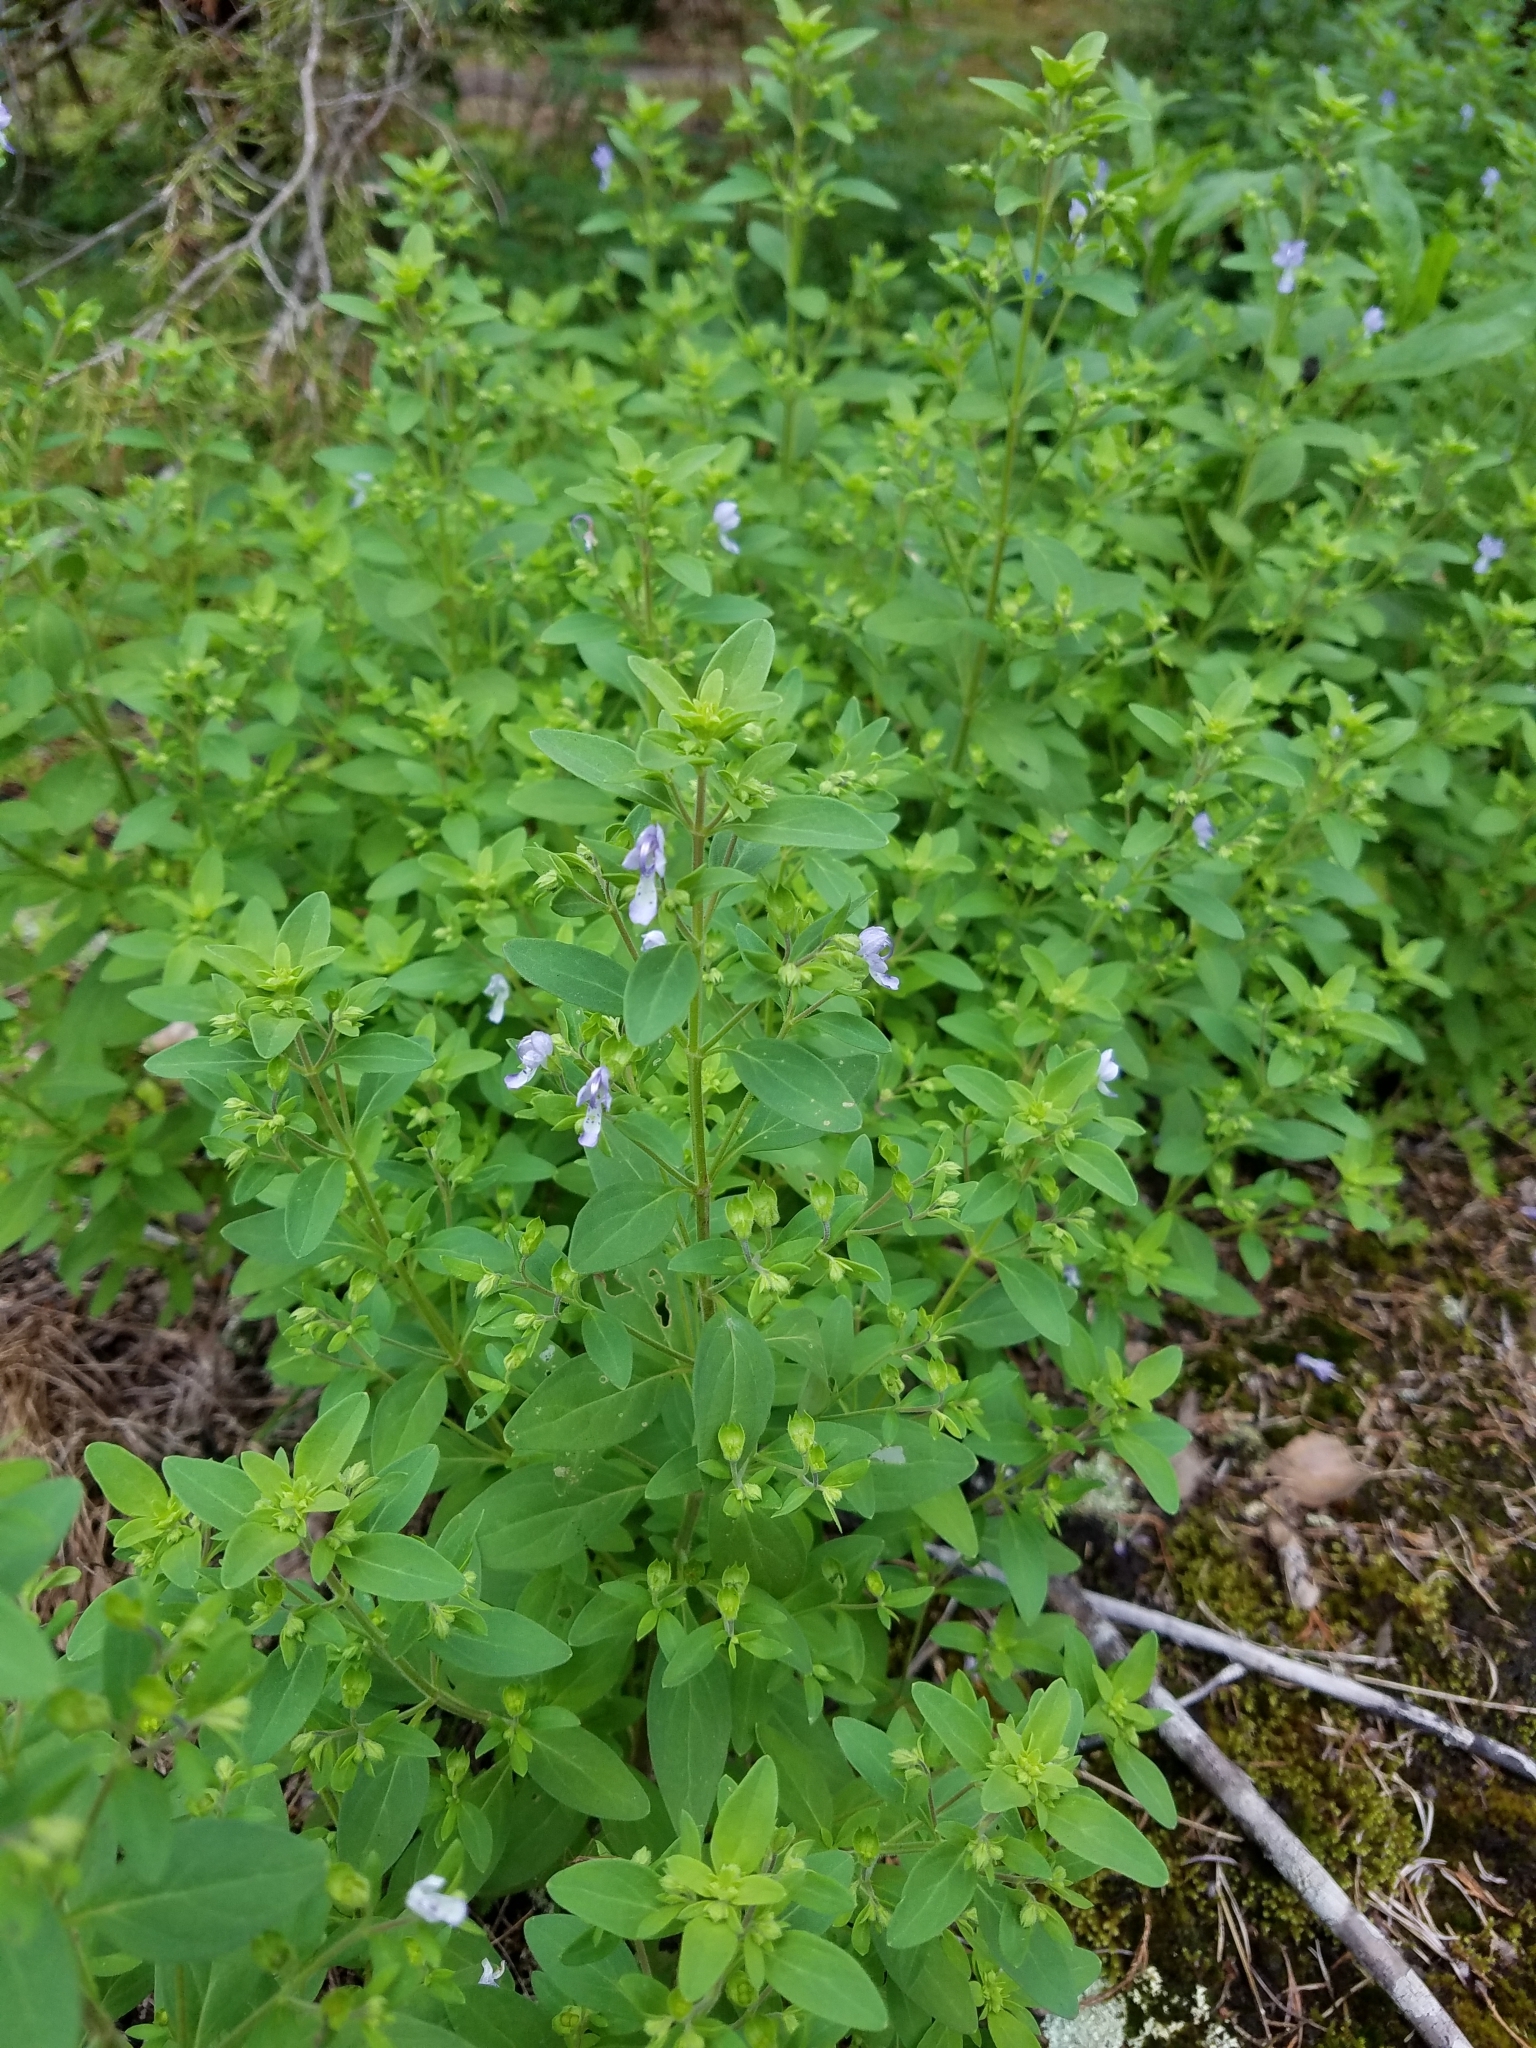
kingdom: Plantae
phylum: Tracheophyta
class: Magnoliopsida
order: Lamiales
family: Lamiaceae
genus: Trichostema
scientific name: Trichostema dichotomum
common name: Bastard pennyroyal
